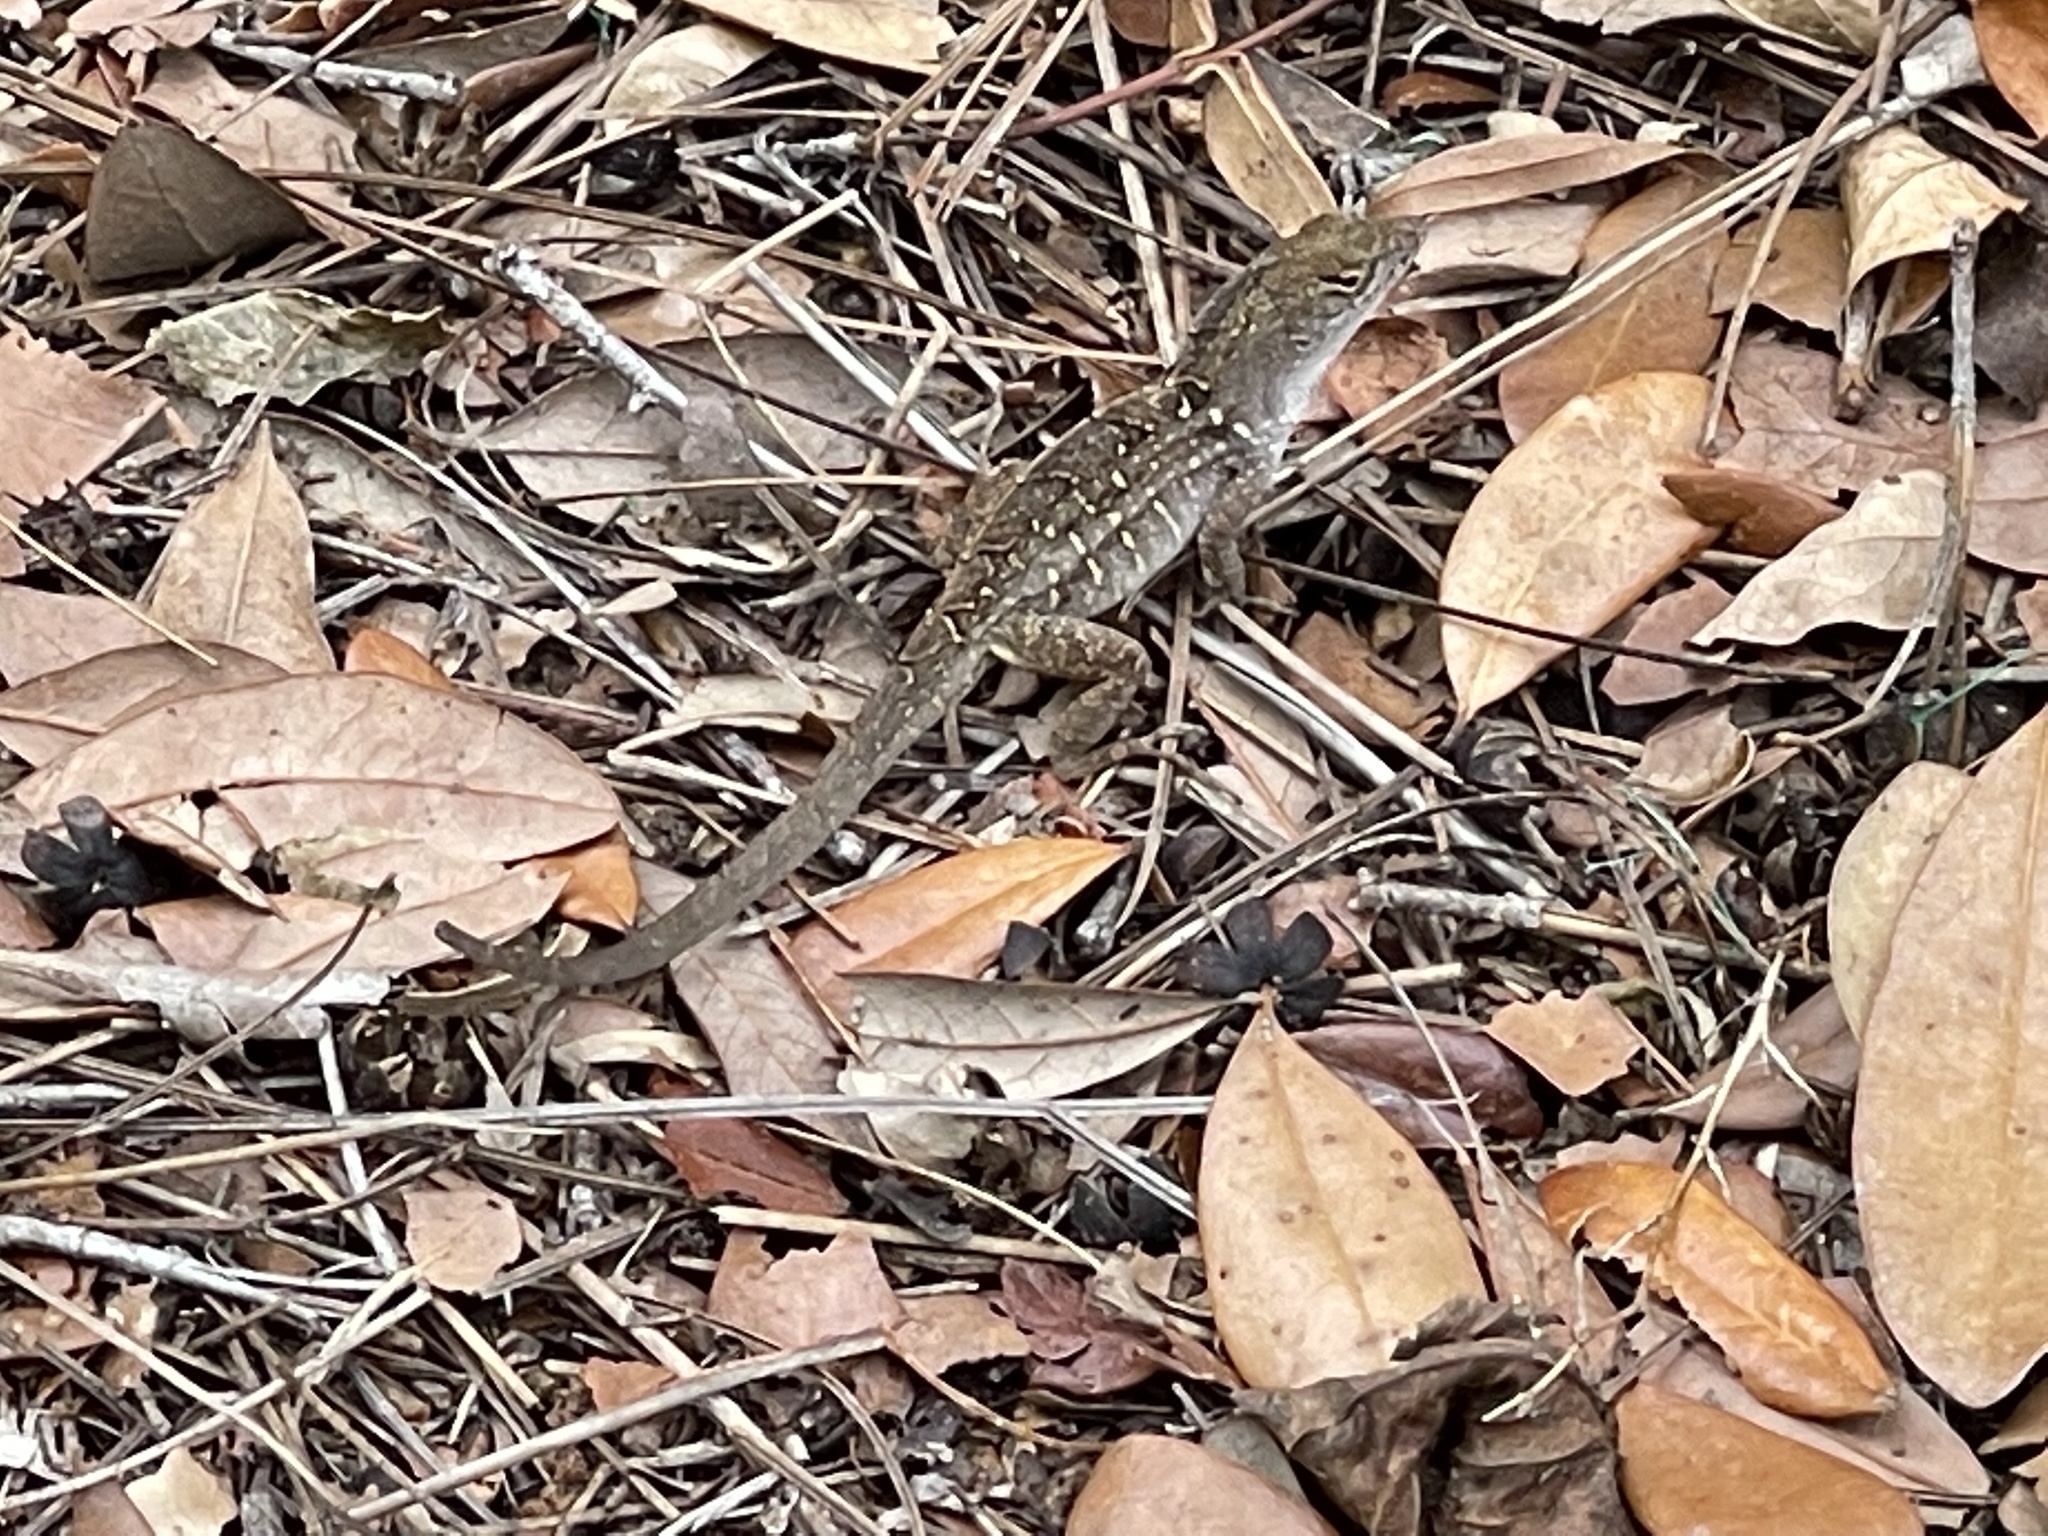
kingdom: Animalia
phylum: Chordata
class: Squamata
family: Dactyloidae
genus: Anolis
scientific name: Anolis sagrei
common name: Brown anole
